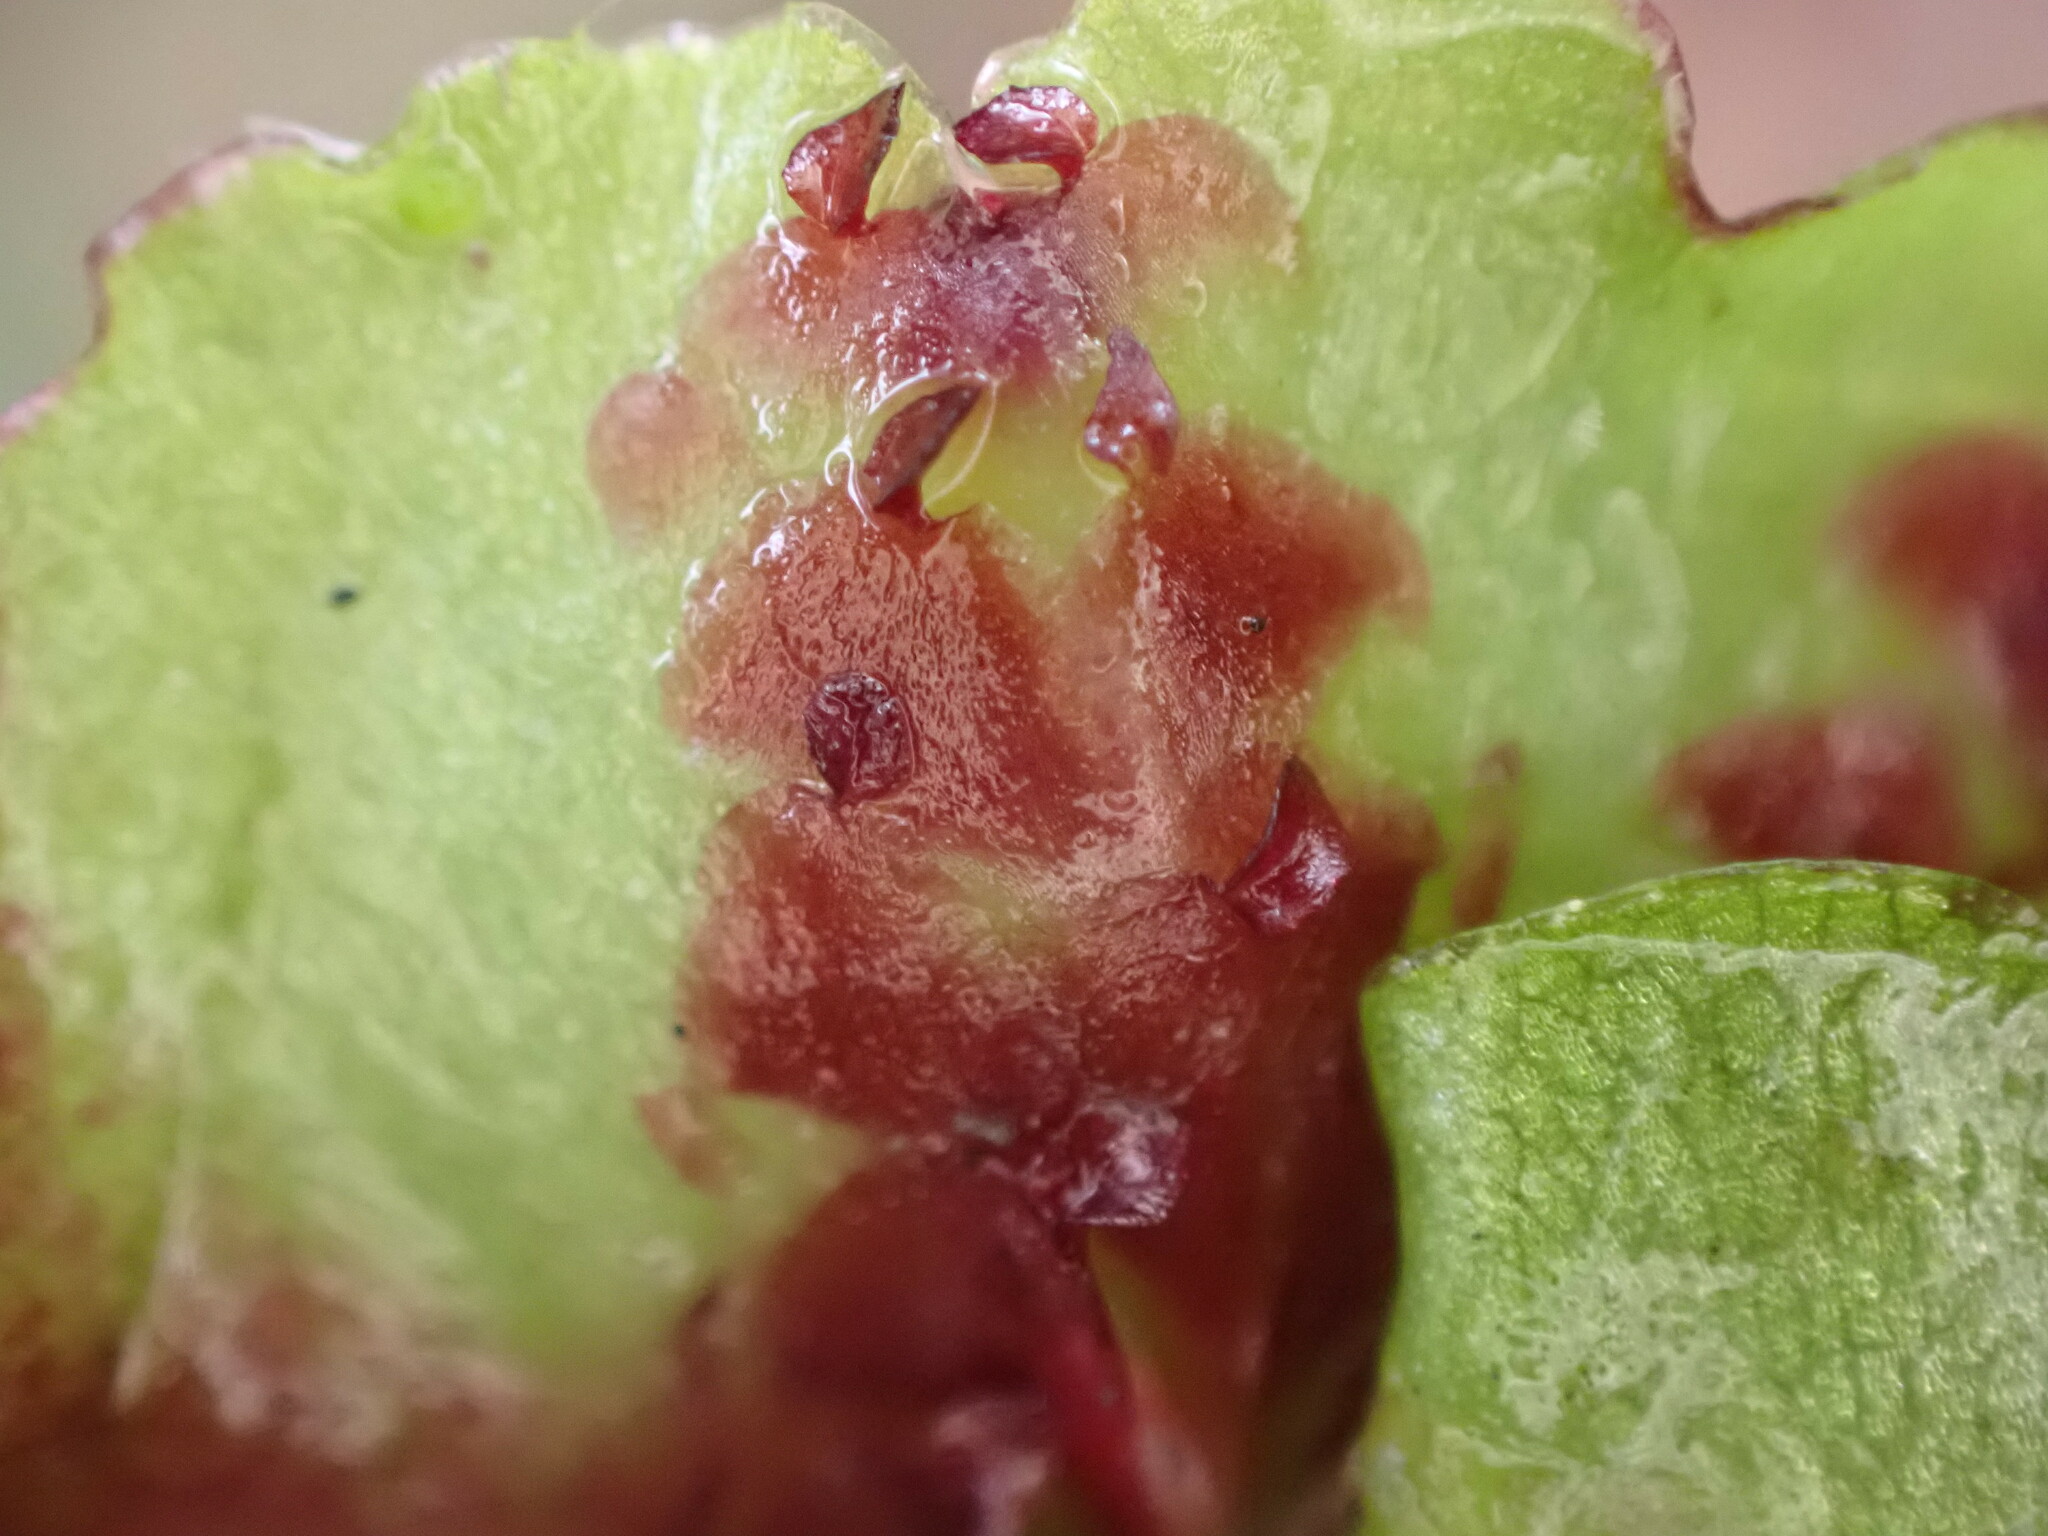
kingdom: Plantae
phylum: Marchantiophyta
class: Marchantiopsida
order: Marchantiales
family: Marchantiaceae
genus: Marchantia
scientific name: Marchantia berteroana
